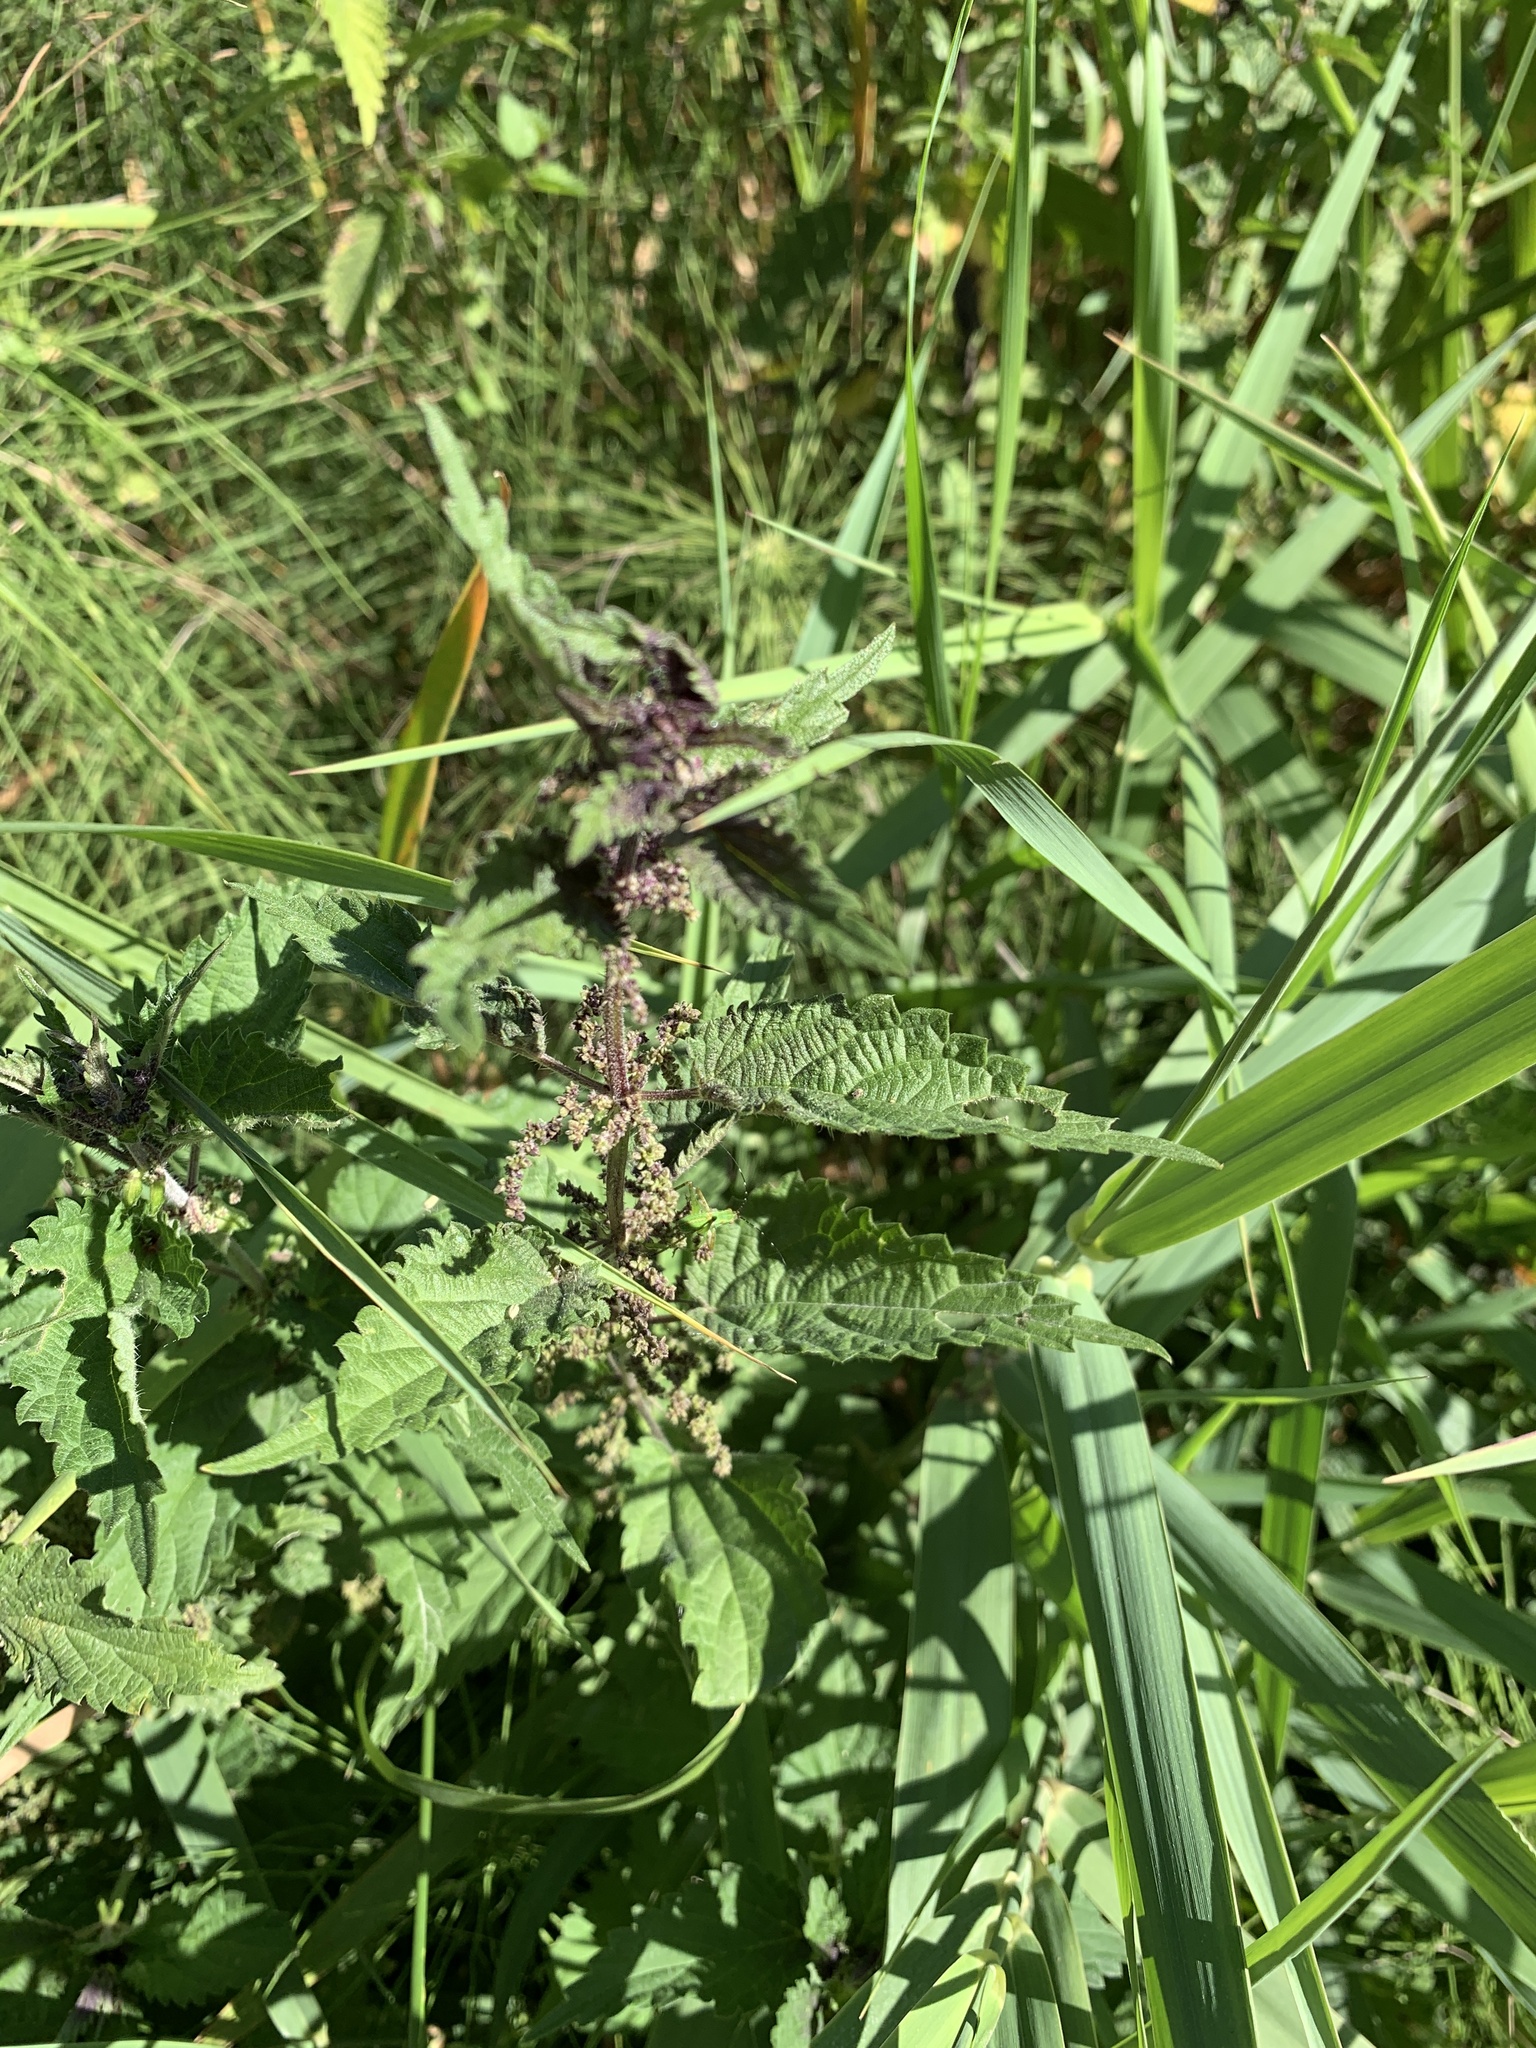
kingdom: Plantae
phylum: Tracheophyta
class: Magnoliopsida
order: Rosales
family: Urticaceae
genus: Urtica
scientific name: Urtica dioica
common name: Common nettle
